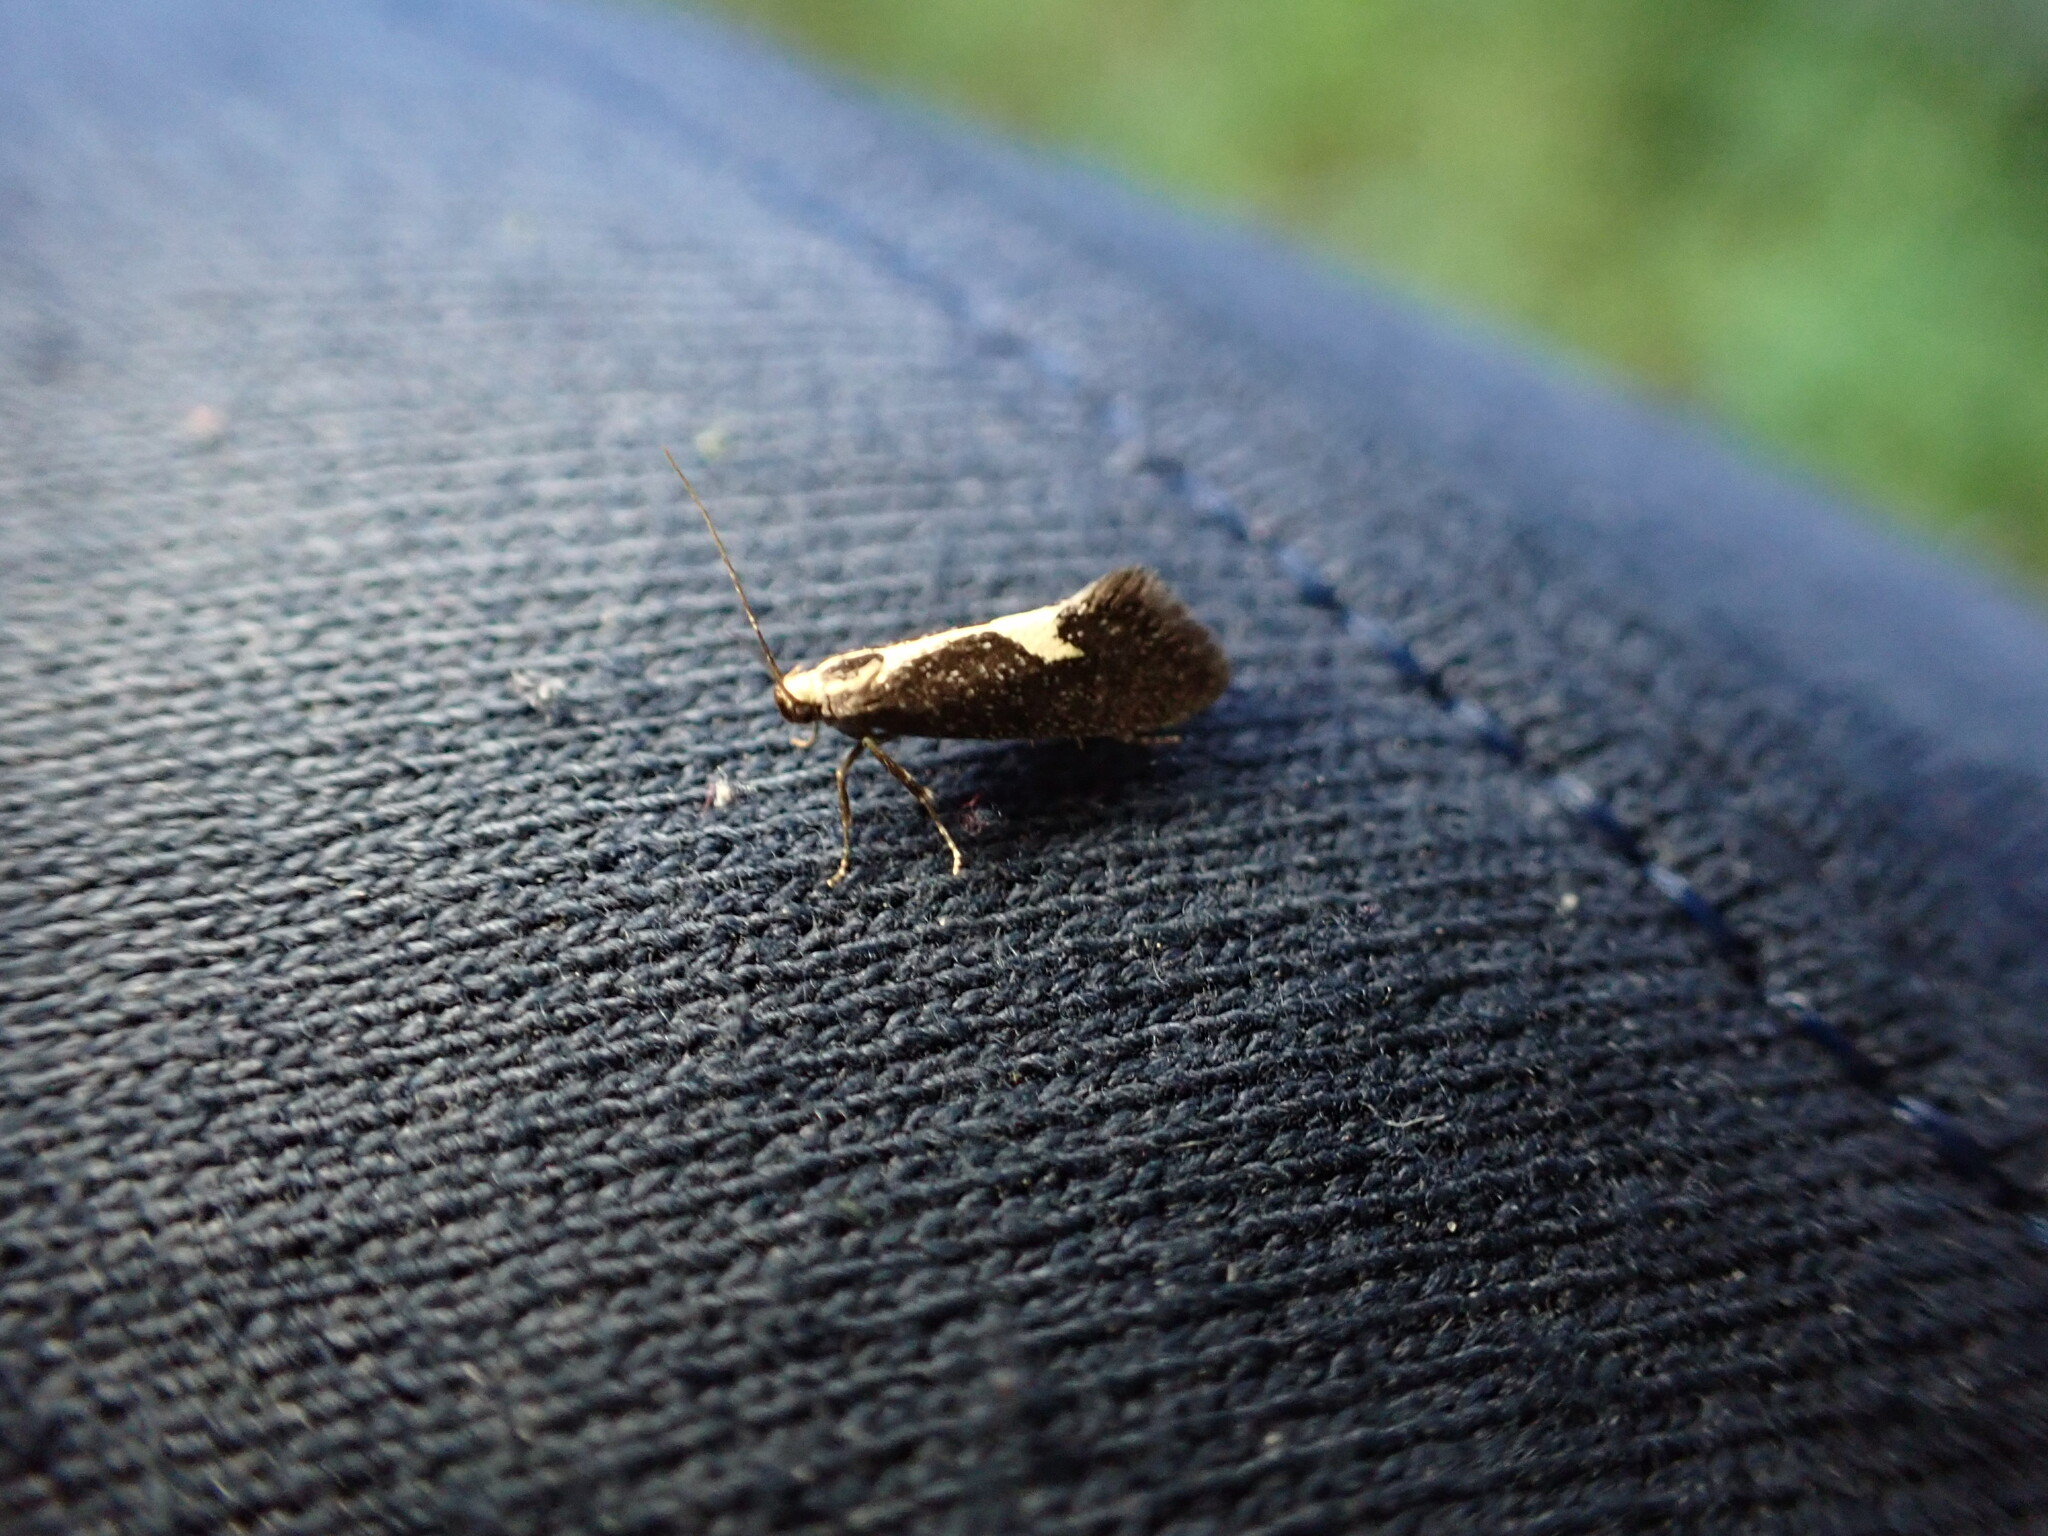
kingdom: Animalia
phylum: Arthropoda
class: Insecta
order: Lepidoptera
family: Oecophoridae
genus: Polix
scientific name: Polix coloradella
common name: Skunk moth
